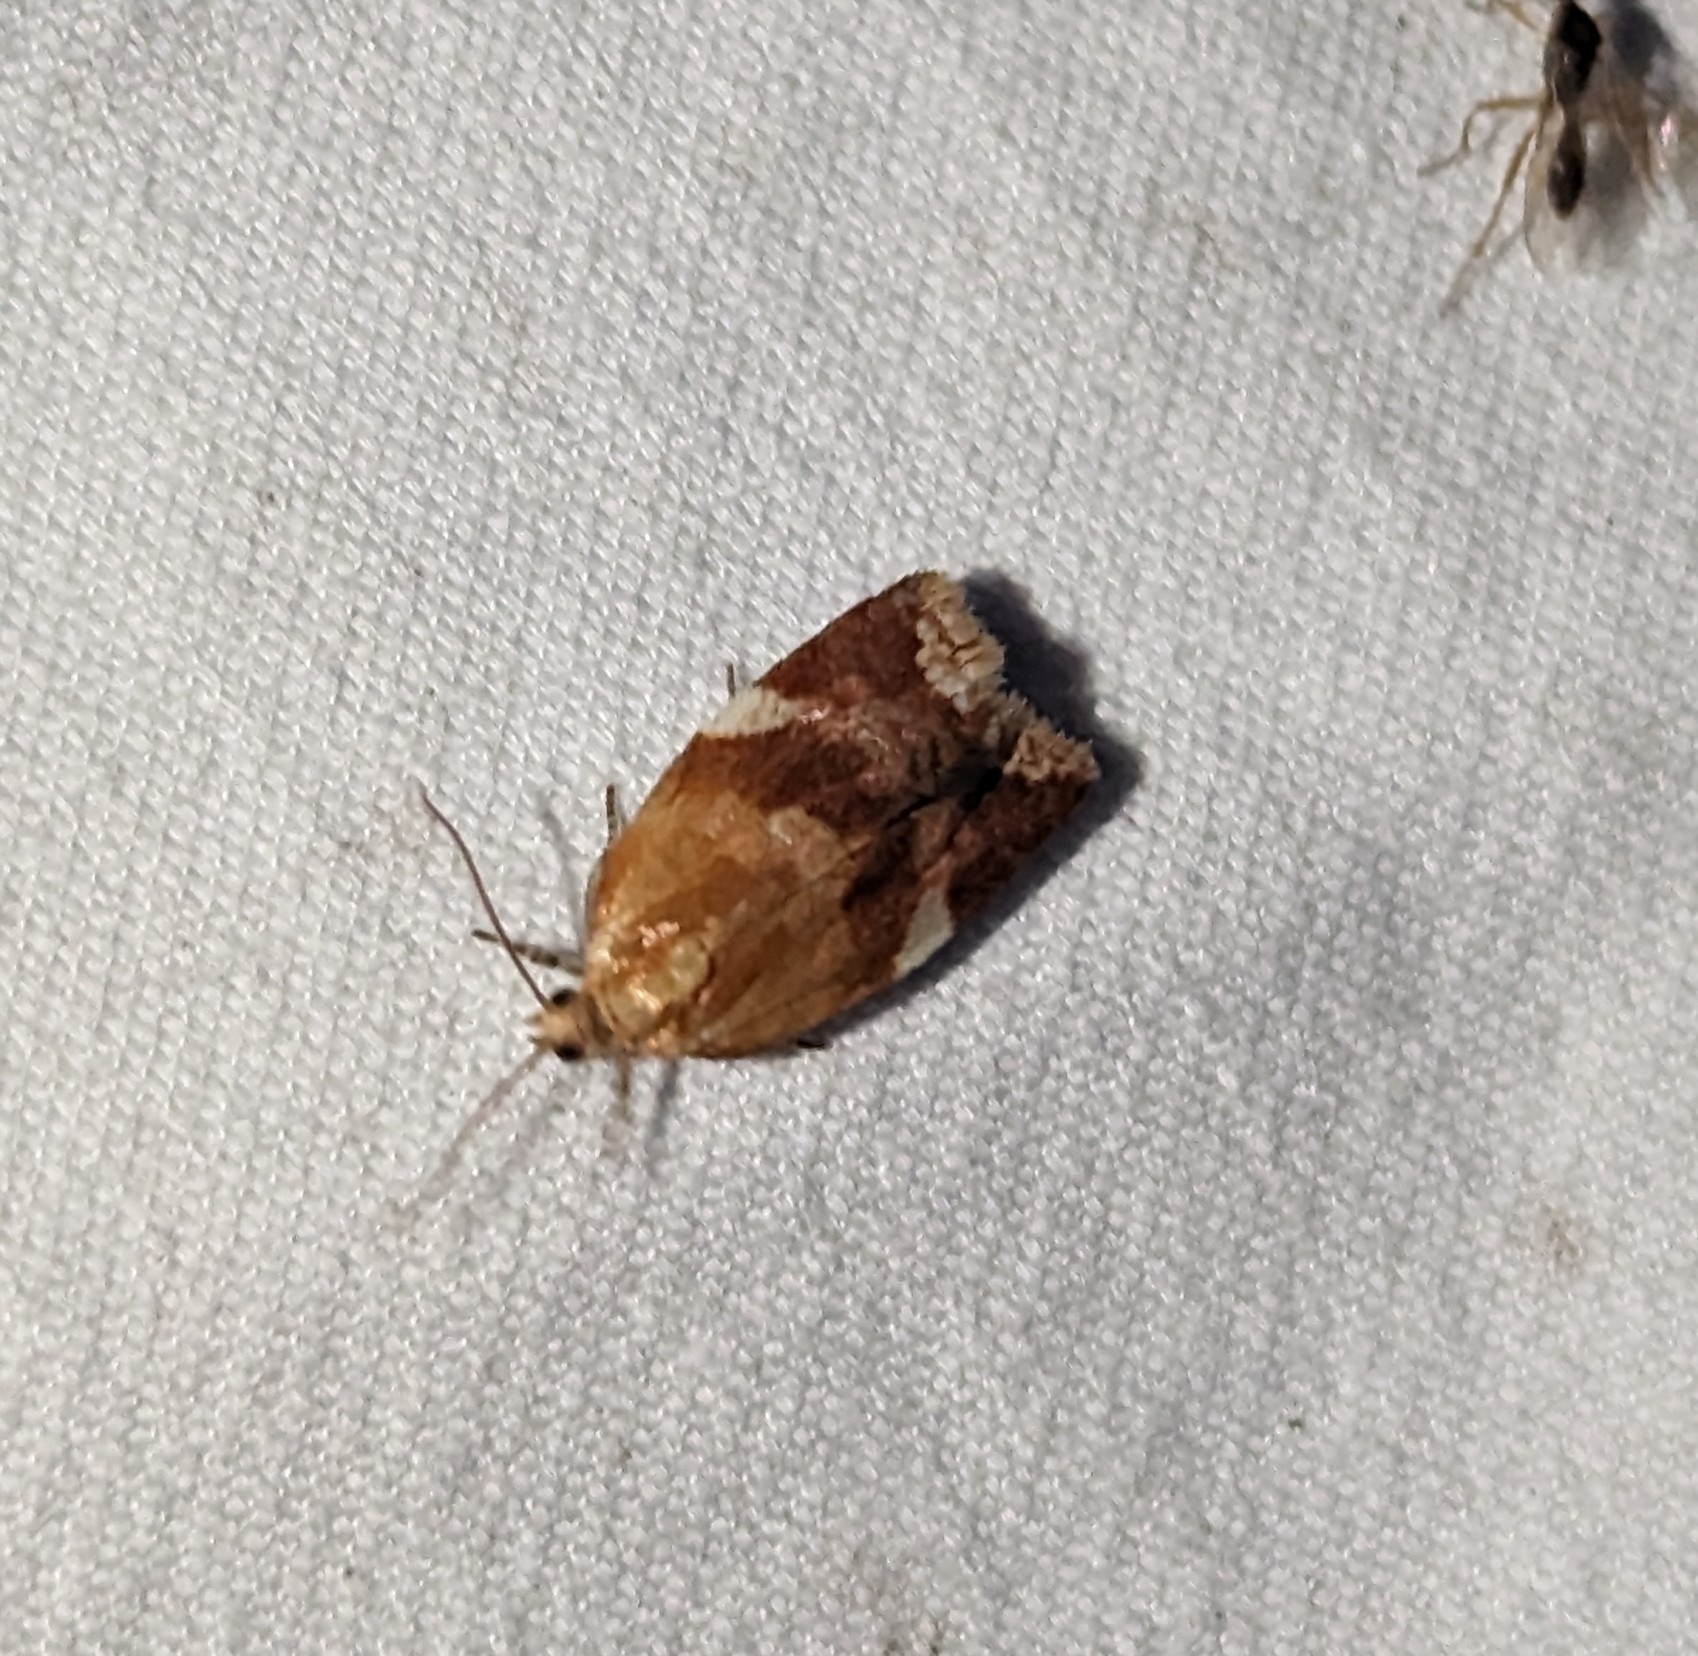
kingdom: Animalia
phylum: Arthropoda
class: Insecta
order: Lepidoptera
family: Tortricidae
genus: Clepsis
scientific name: Clepsis persicana
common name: White triangle tortrix
